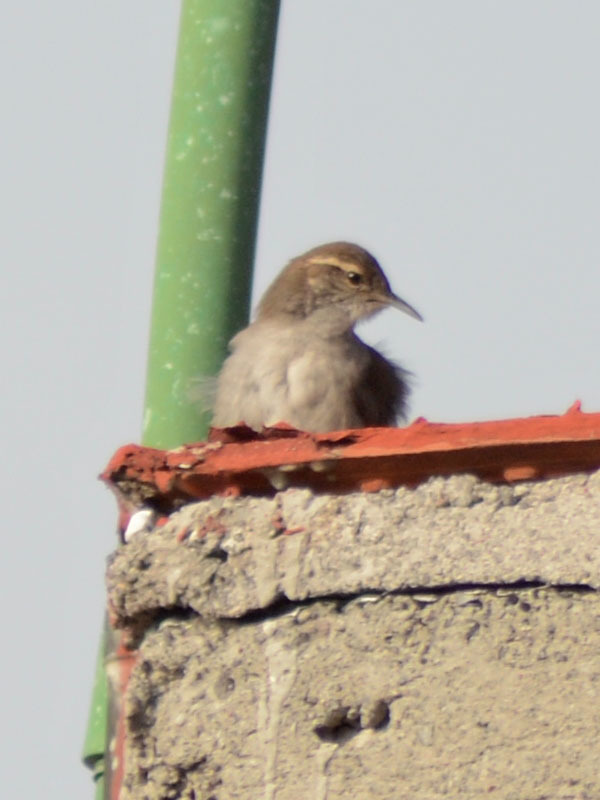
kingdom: Animalia
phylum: Chordata
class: Aves
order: Passeriformes
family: Troglodytidae
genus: Thryomanes
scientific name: Thryomanes bewickii
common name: Bewick's wren
